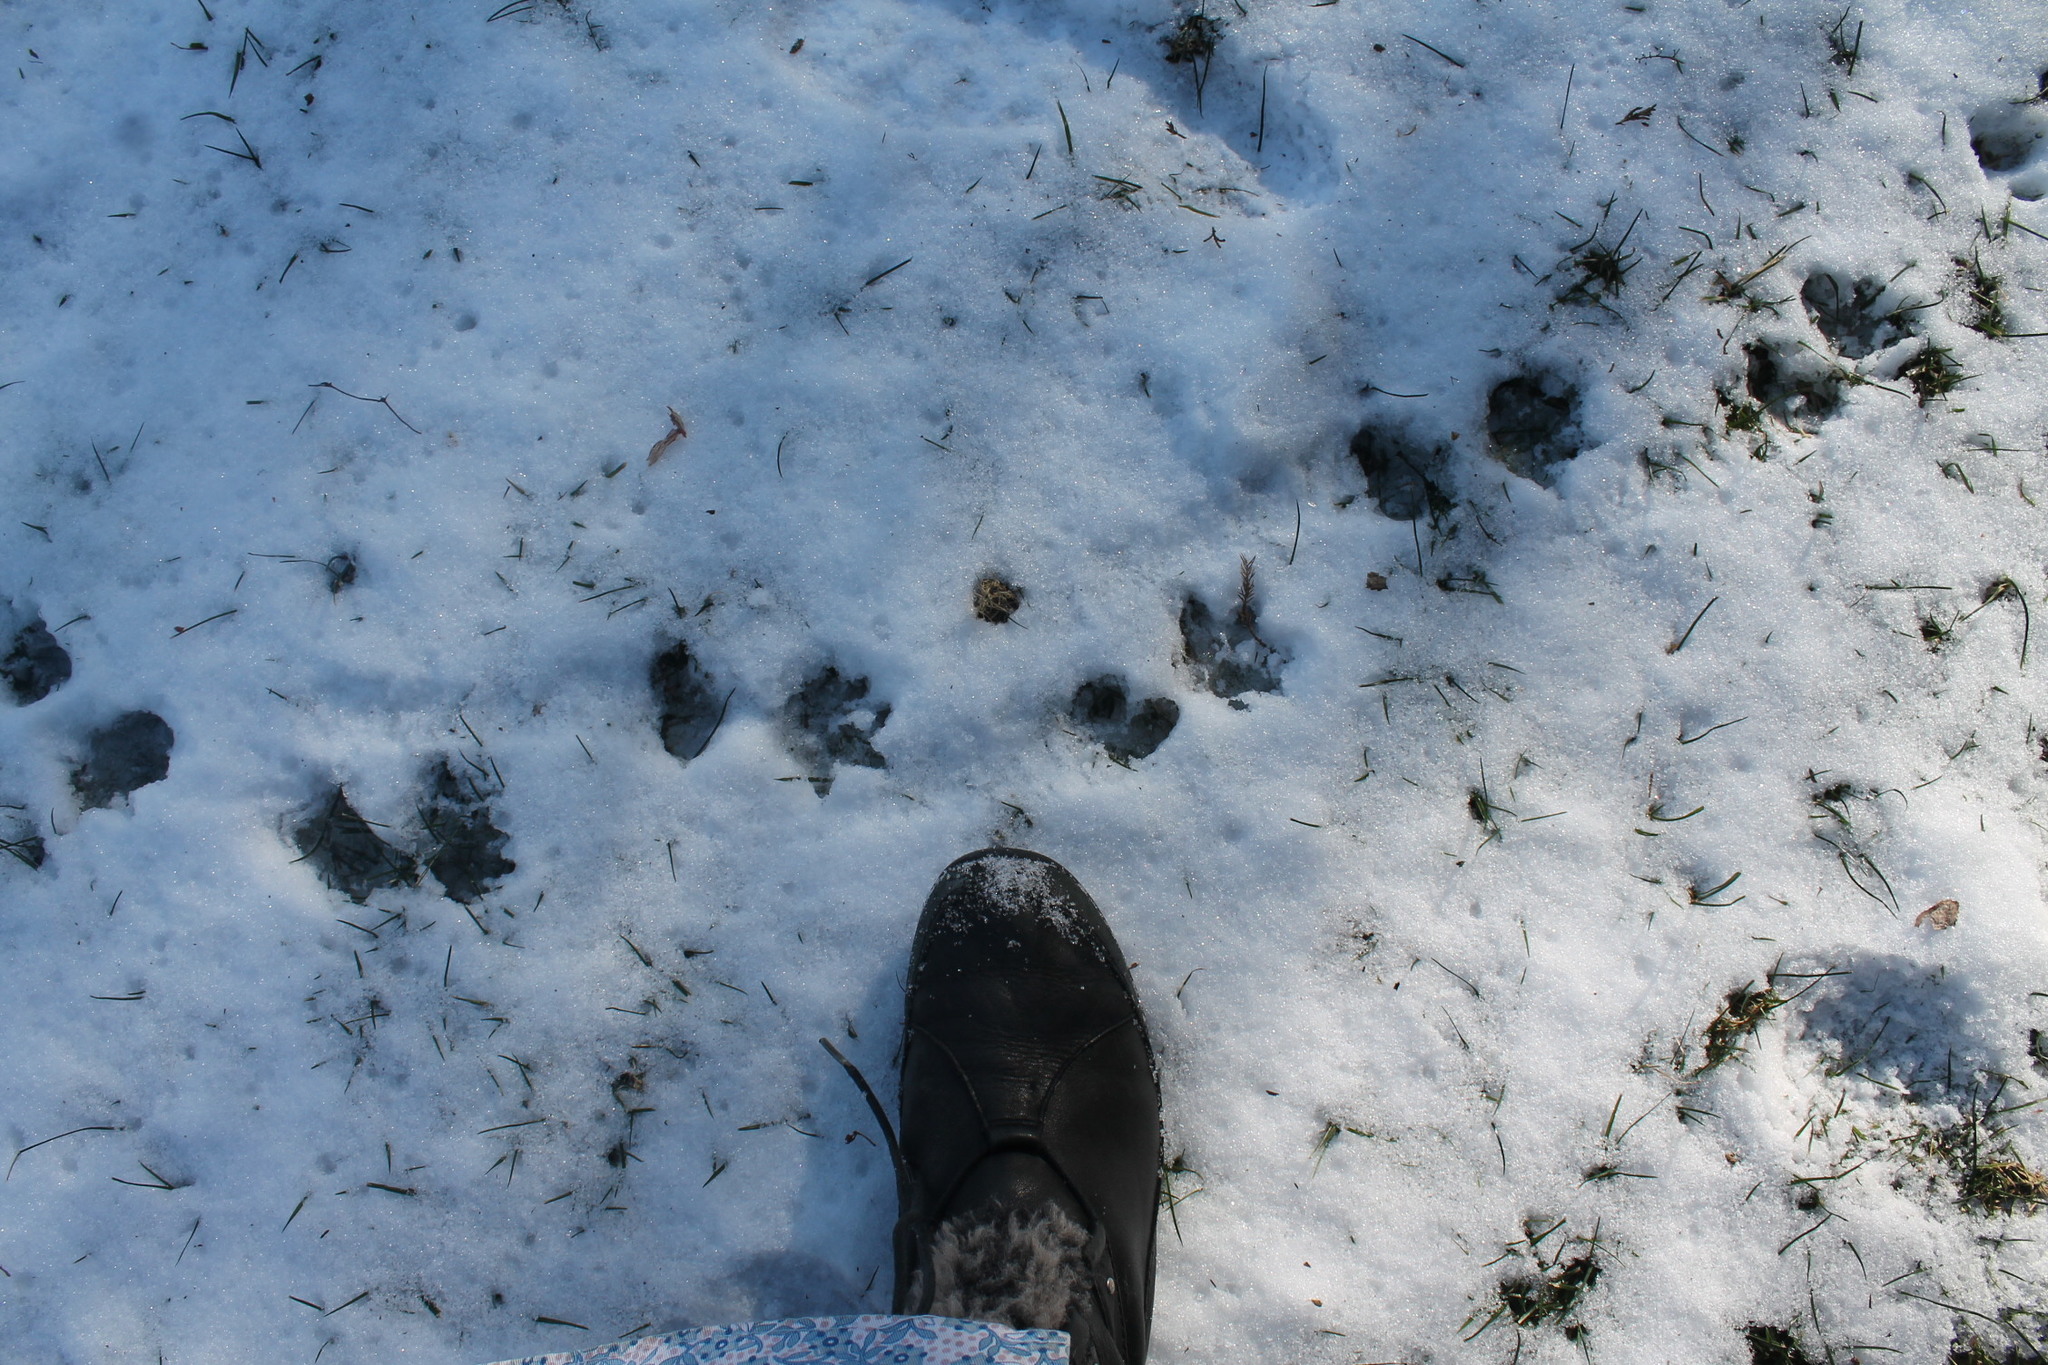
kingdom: Animalia
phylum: Chordata
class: Mammalia
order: Didelphimorphia
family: Didelphidae
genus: Didelphis
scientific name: Didelphis virginiana
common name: Virginia opossum
